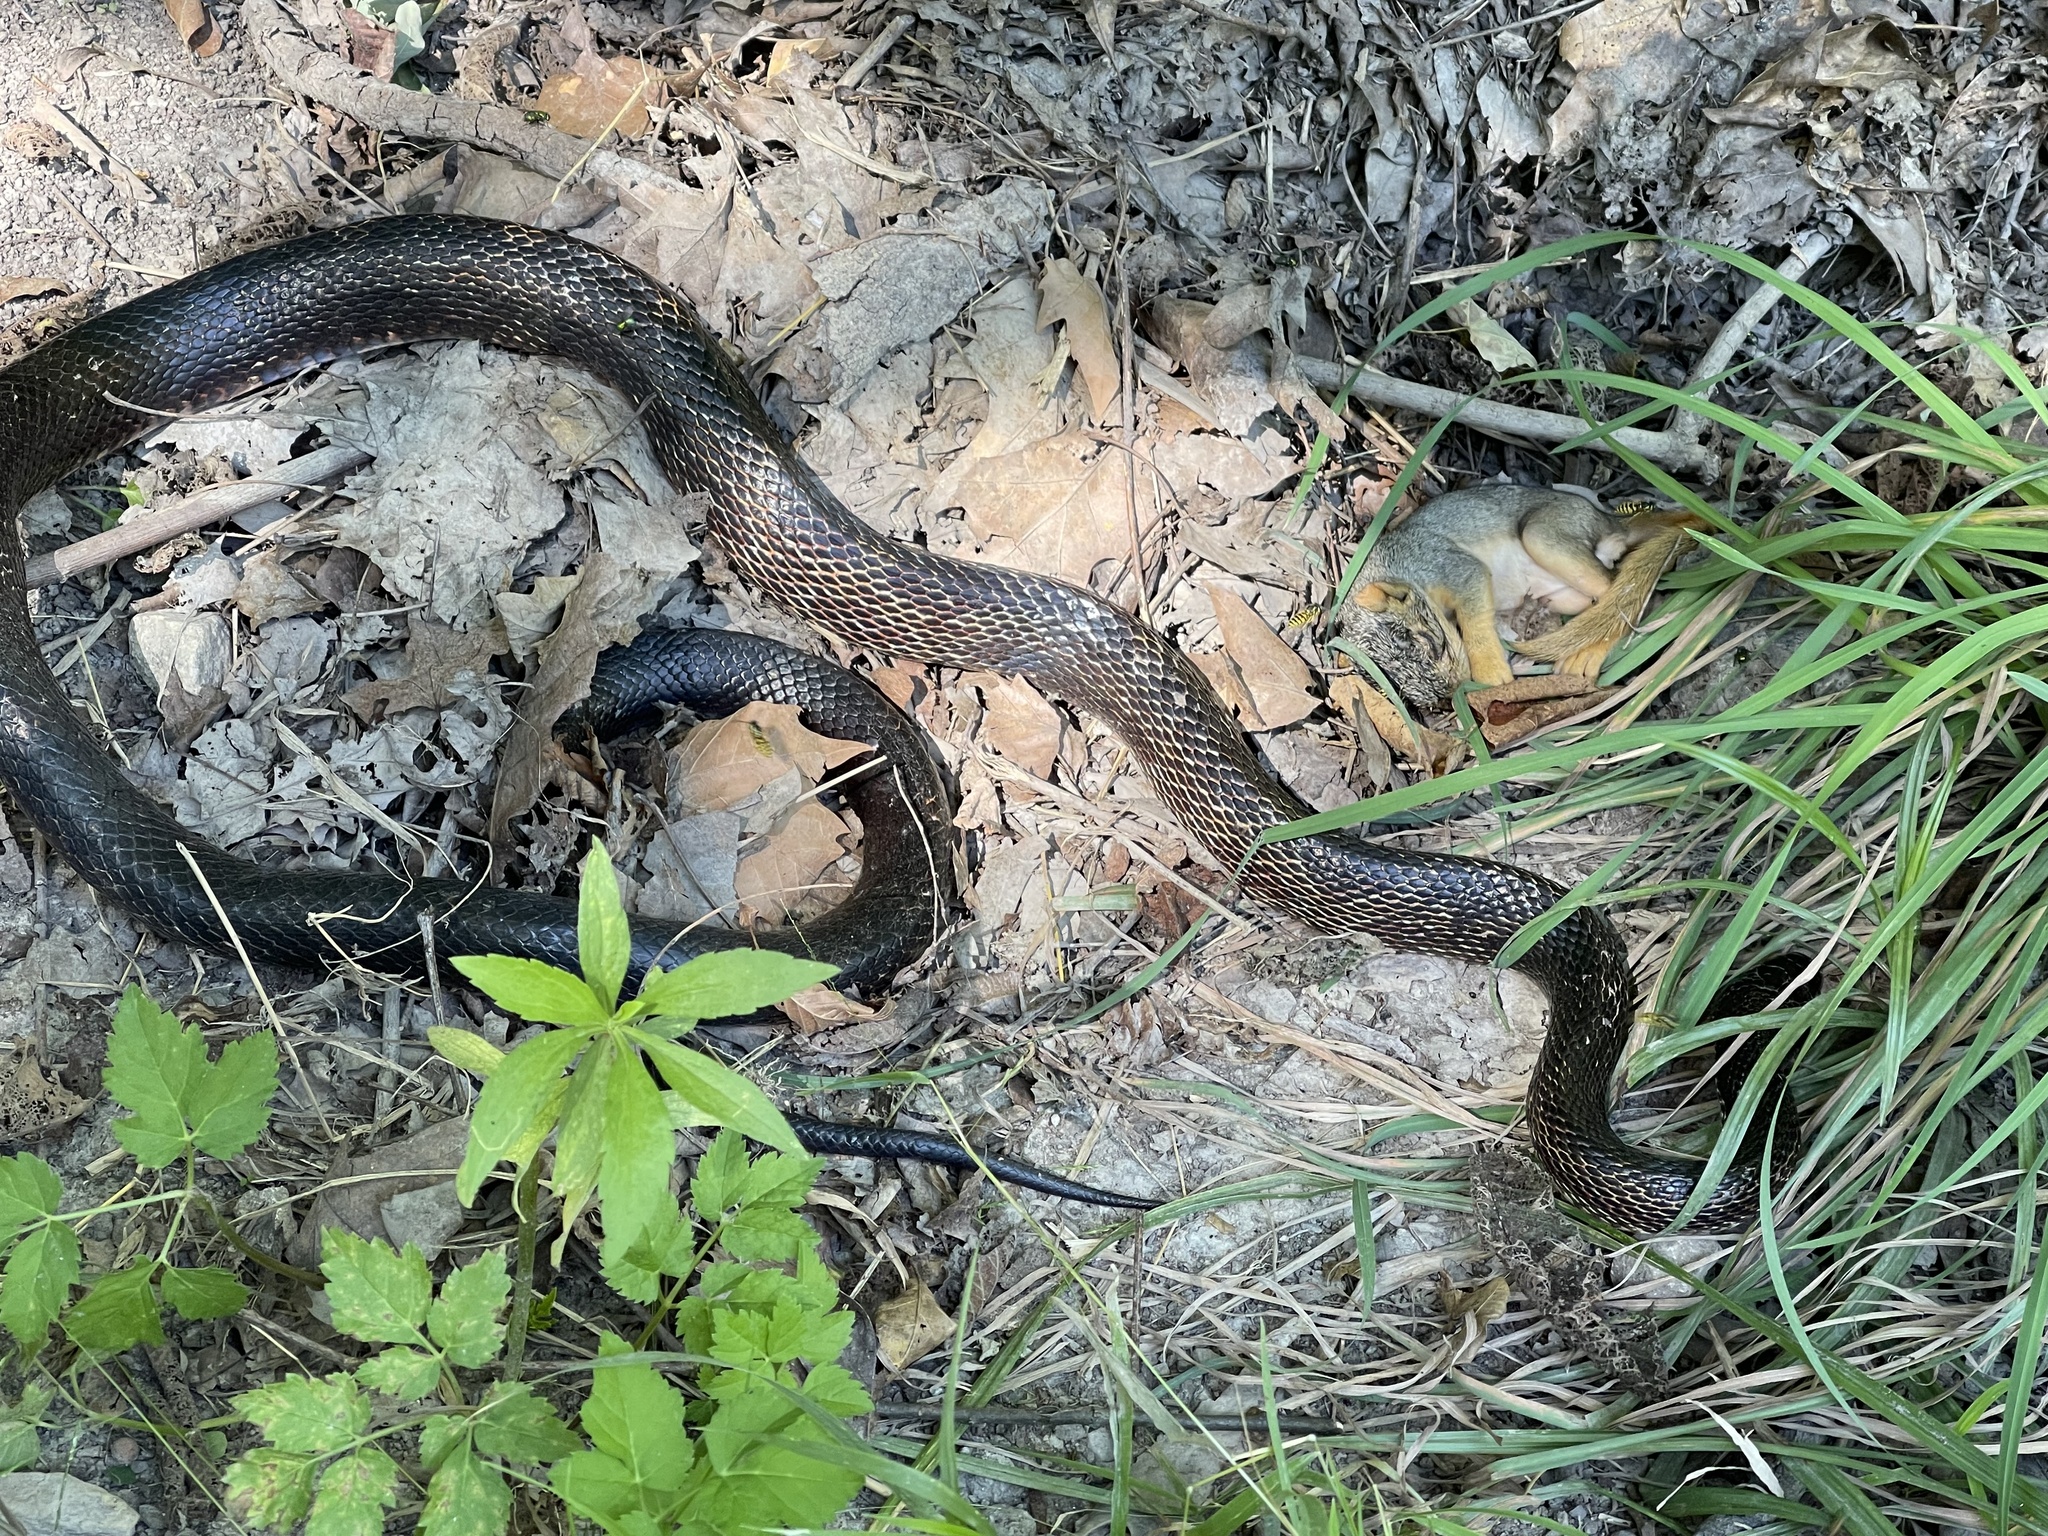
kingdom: Animalia
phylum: Chordata
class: Squamata
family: Colubridae
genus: Pantherophis
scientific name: Pantherophis spiloides
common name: Gray rat snake
